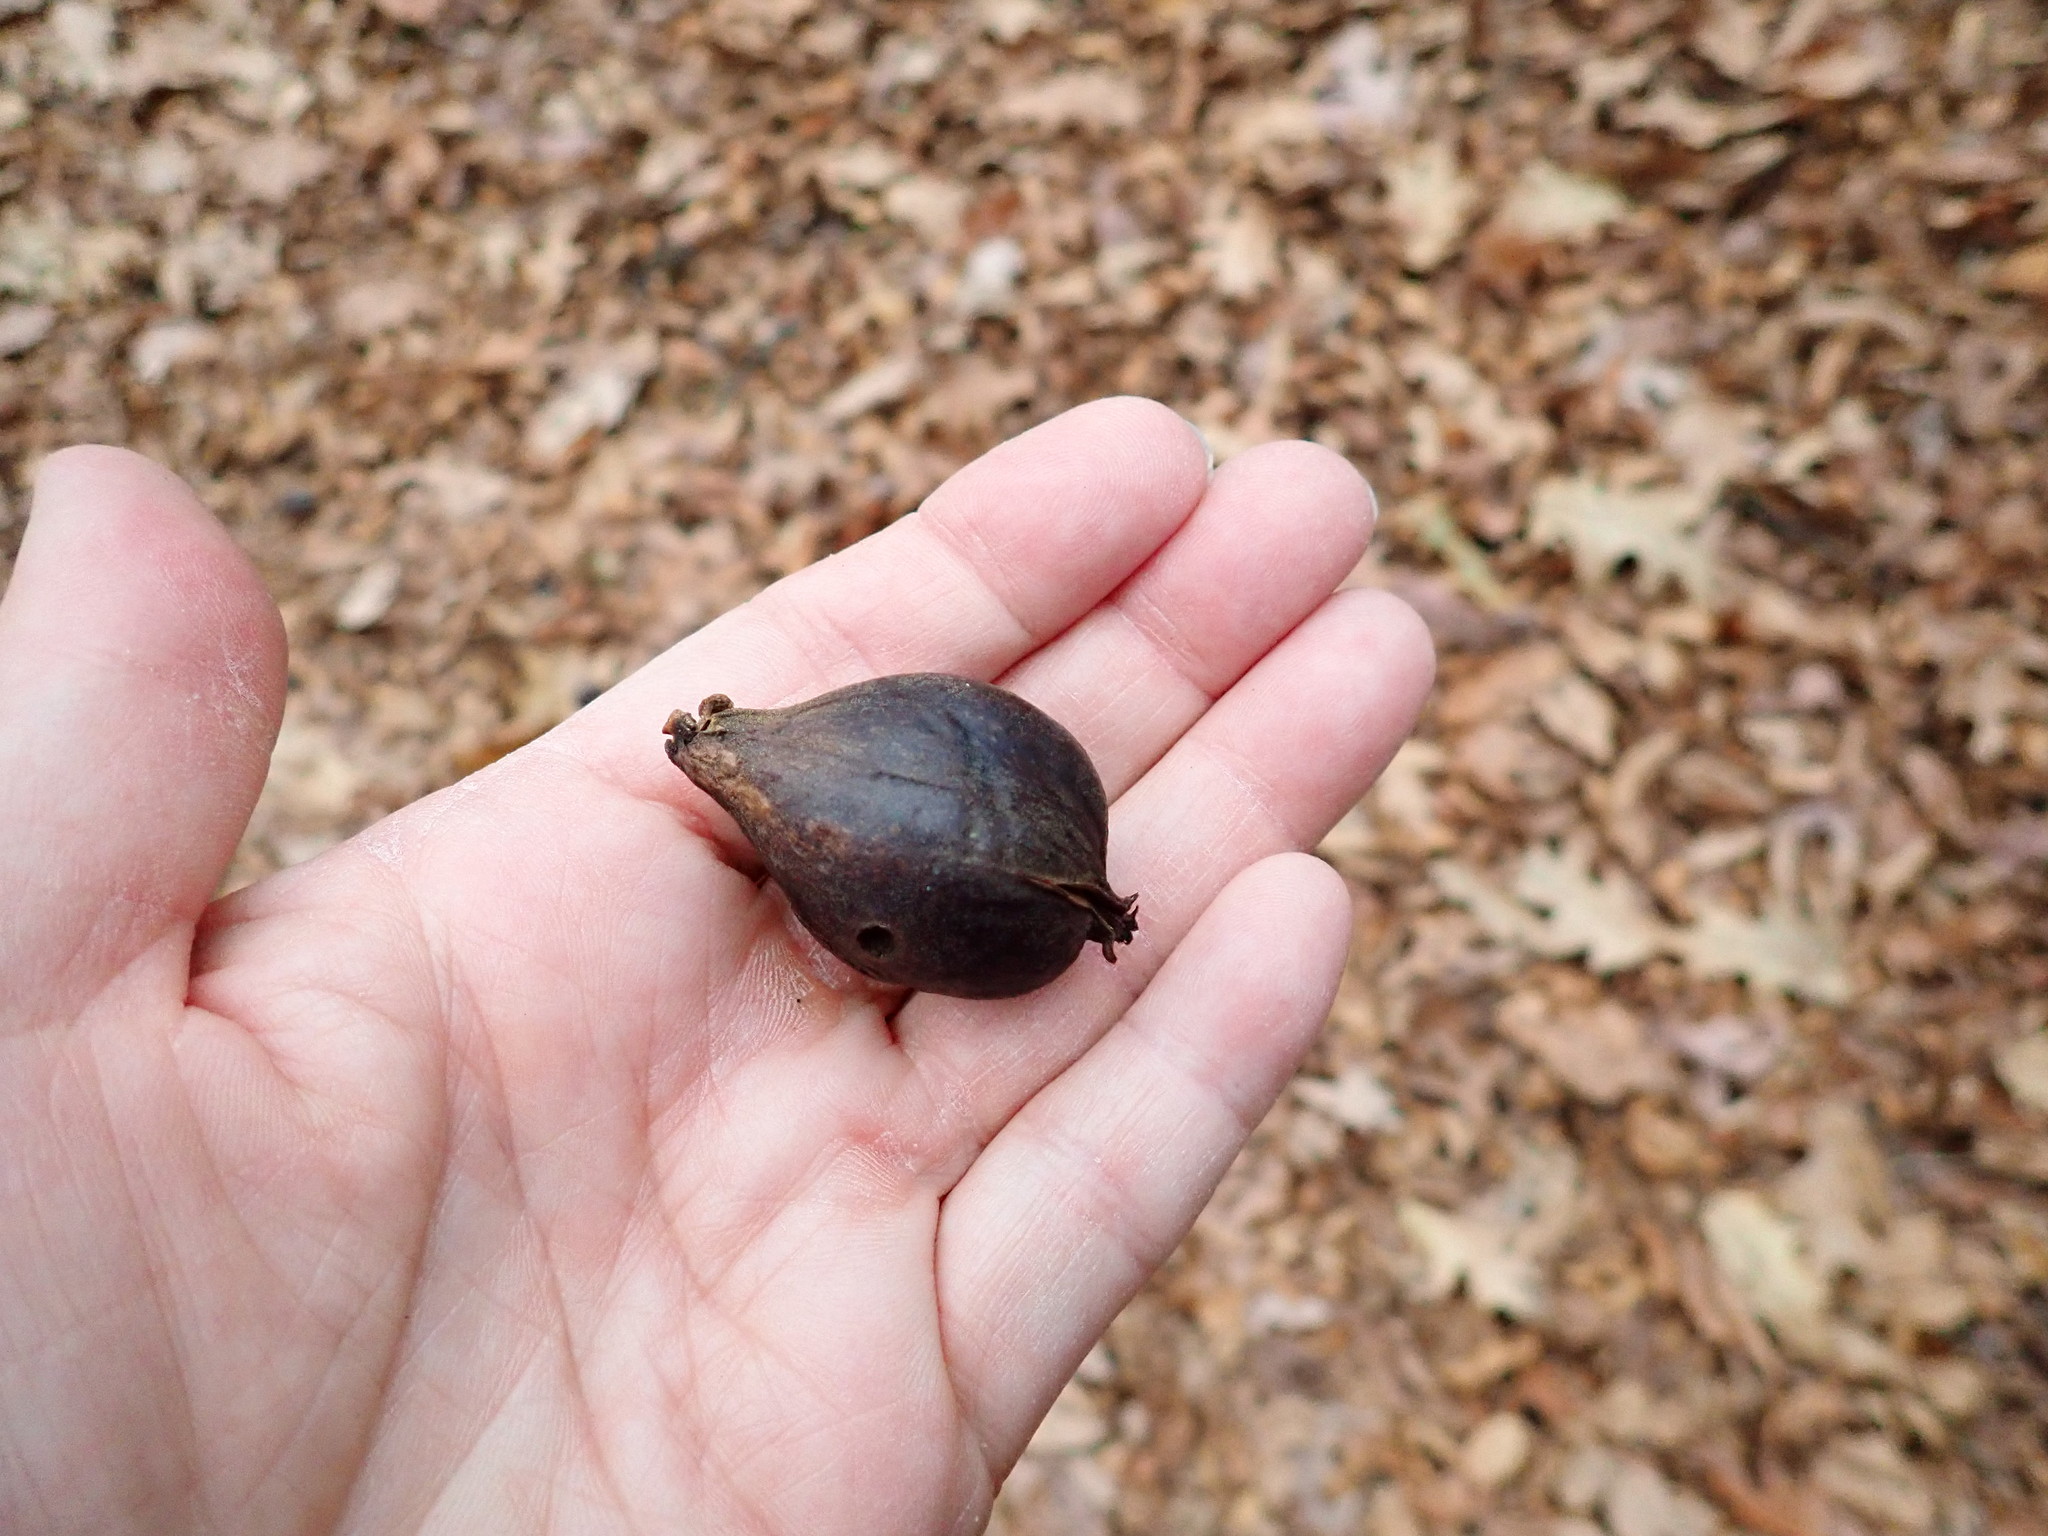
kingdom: Plantae
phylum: Tracheophyta
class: Magnoliopsida
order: Fagales
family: Juglandaceae
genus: Carya
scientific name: Carya glabra
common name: Pignut hickory
